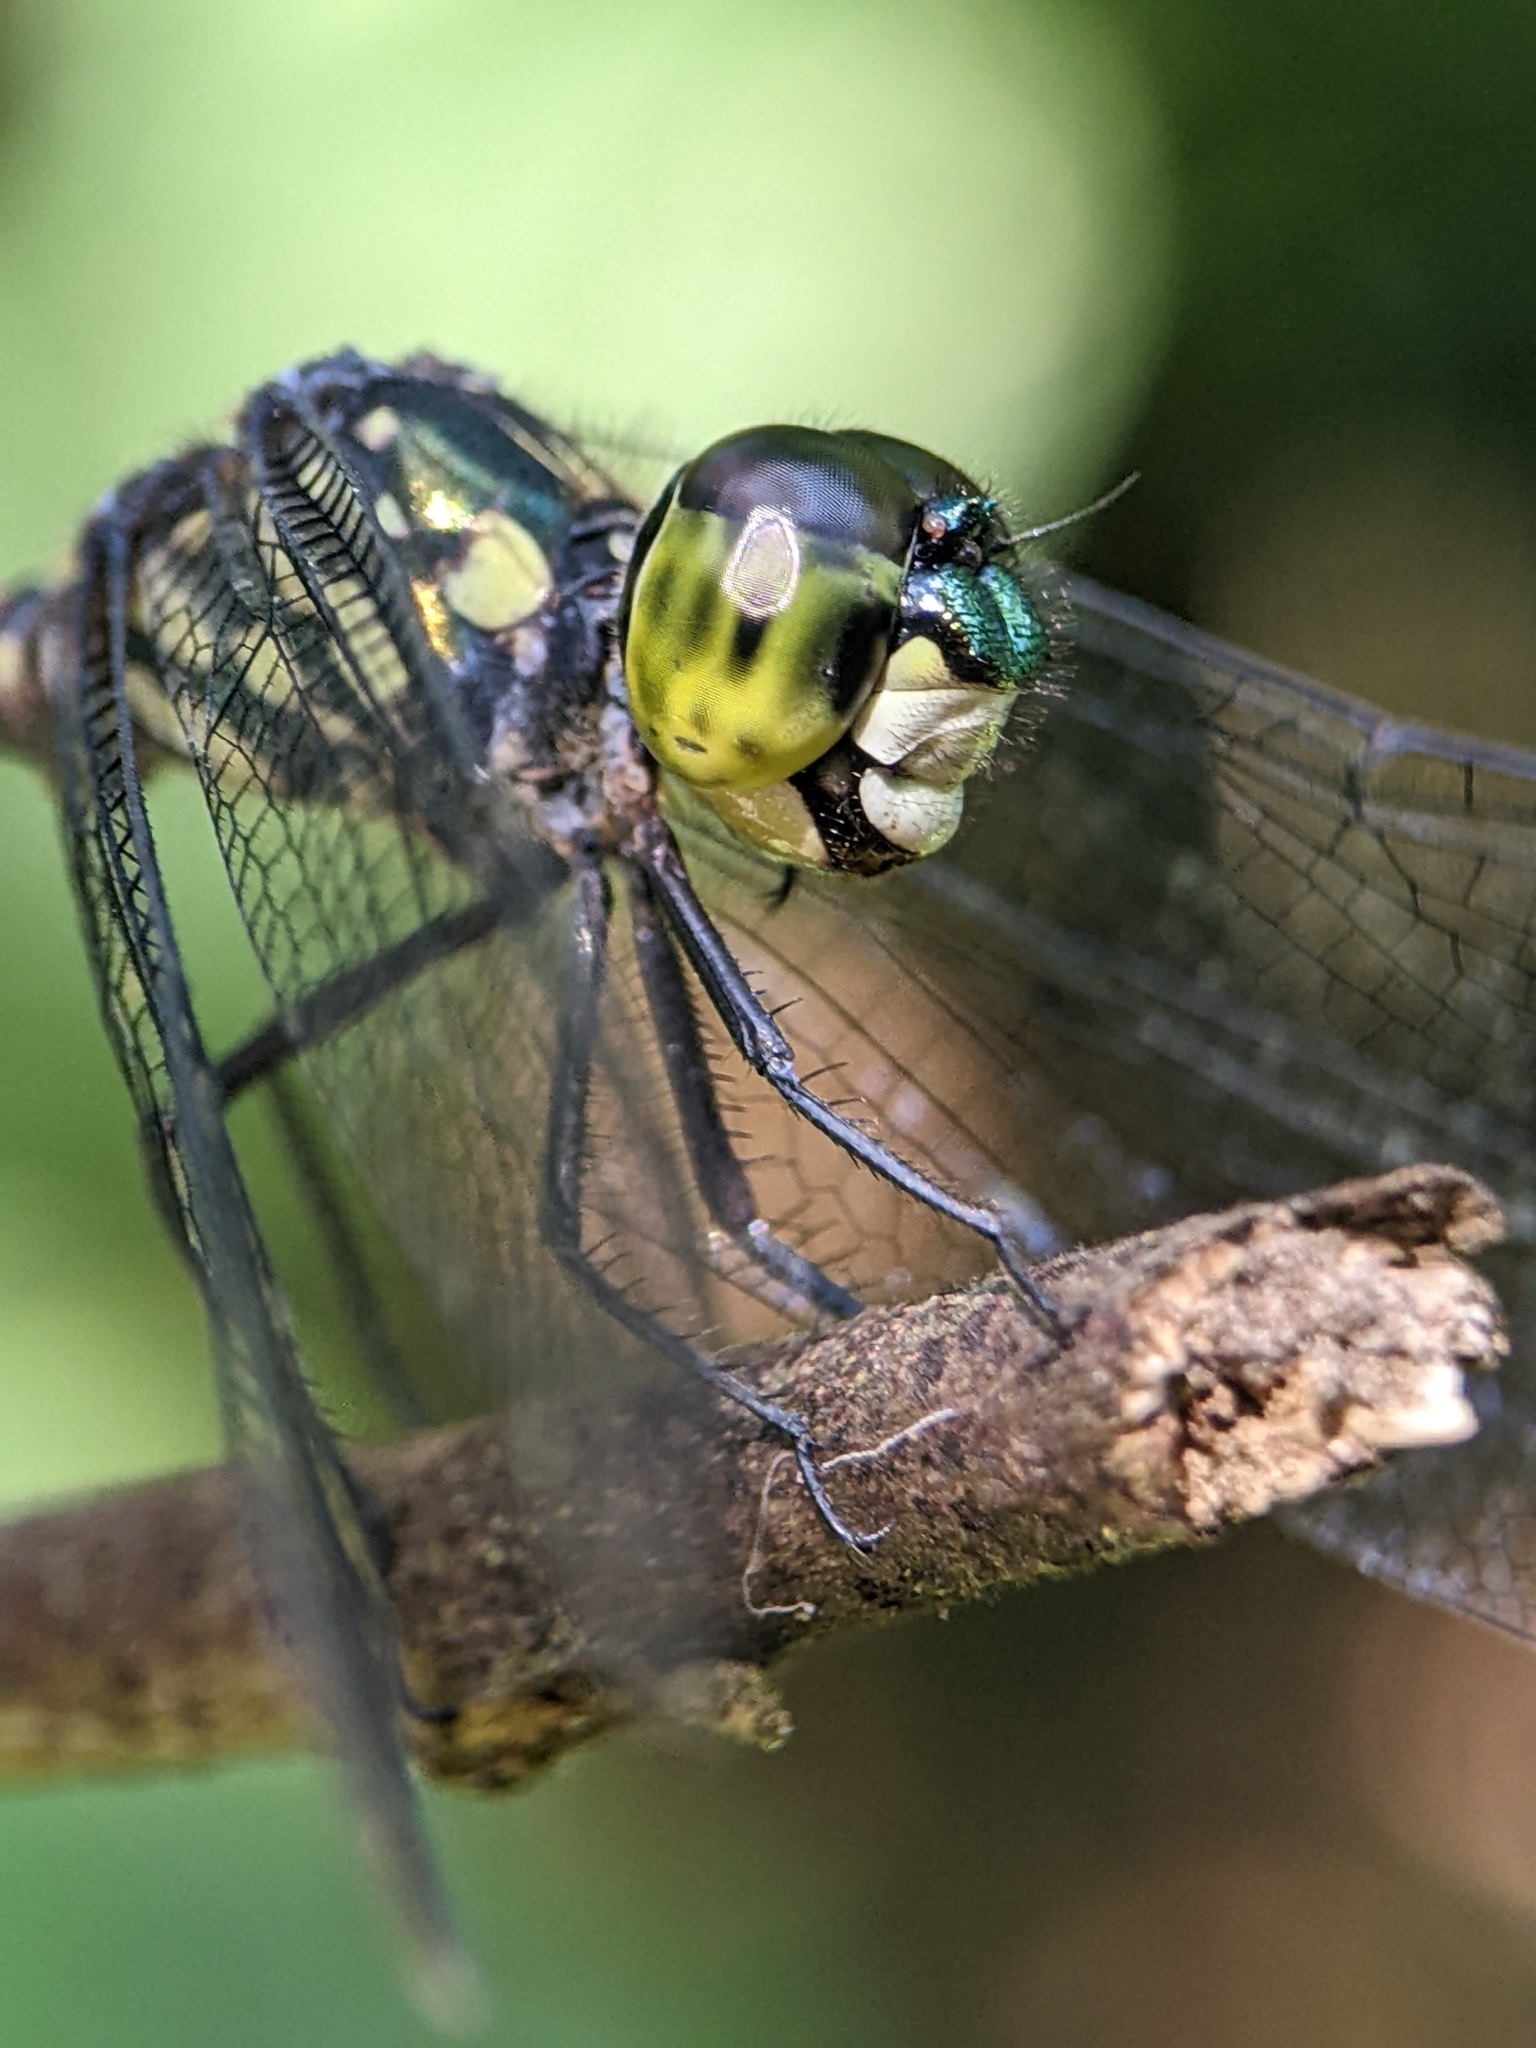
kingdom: Animalia
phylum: Arthropoda
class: Insecta
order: Odonata
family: Libellulidae
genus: Agrionoptera
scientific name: Agrionoptera insignis
